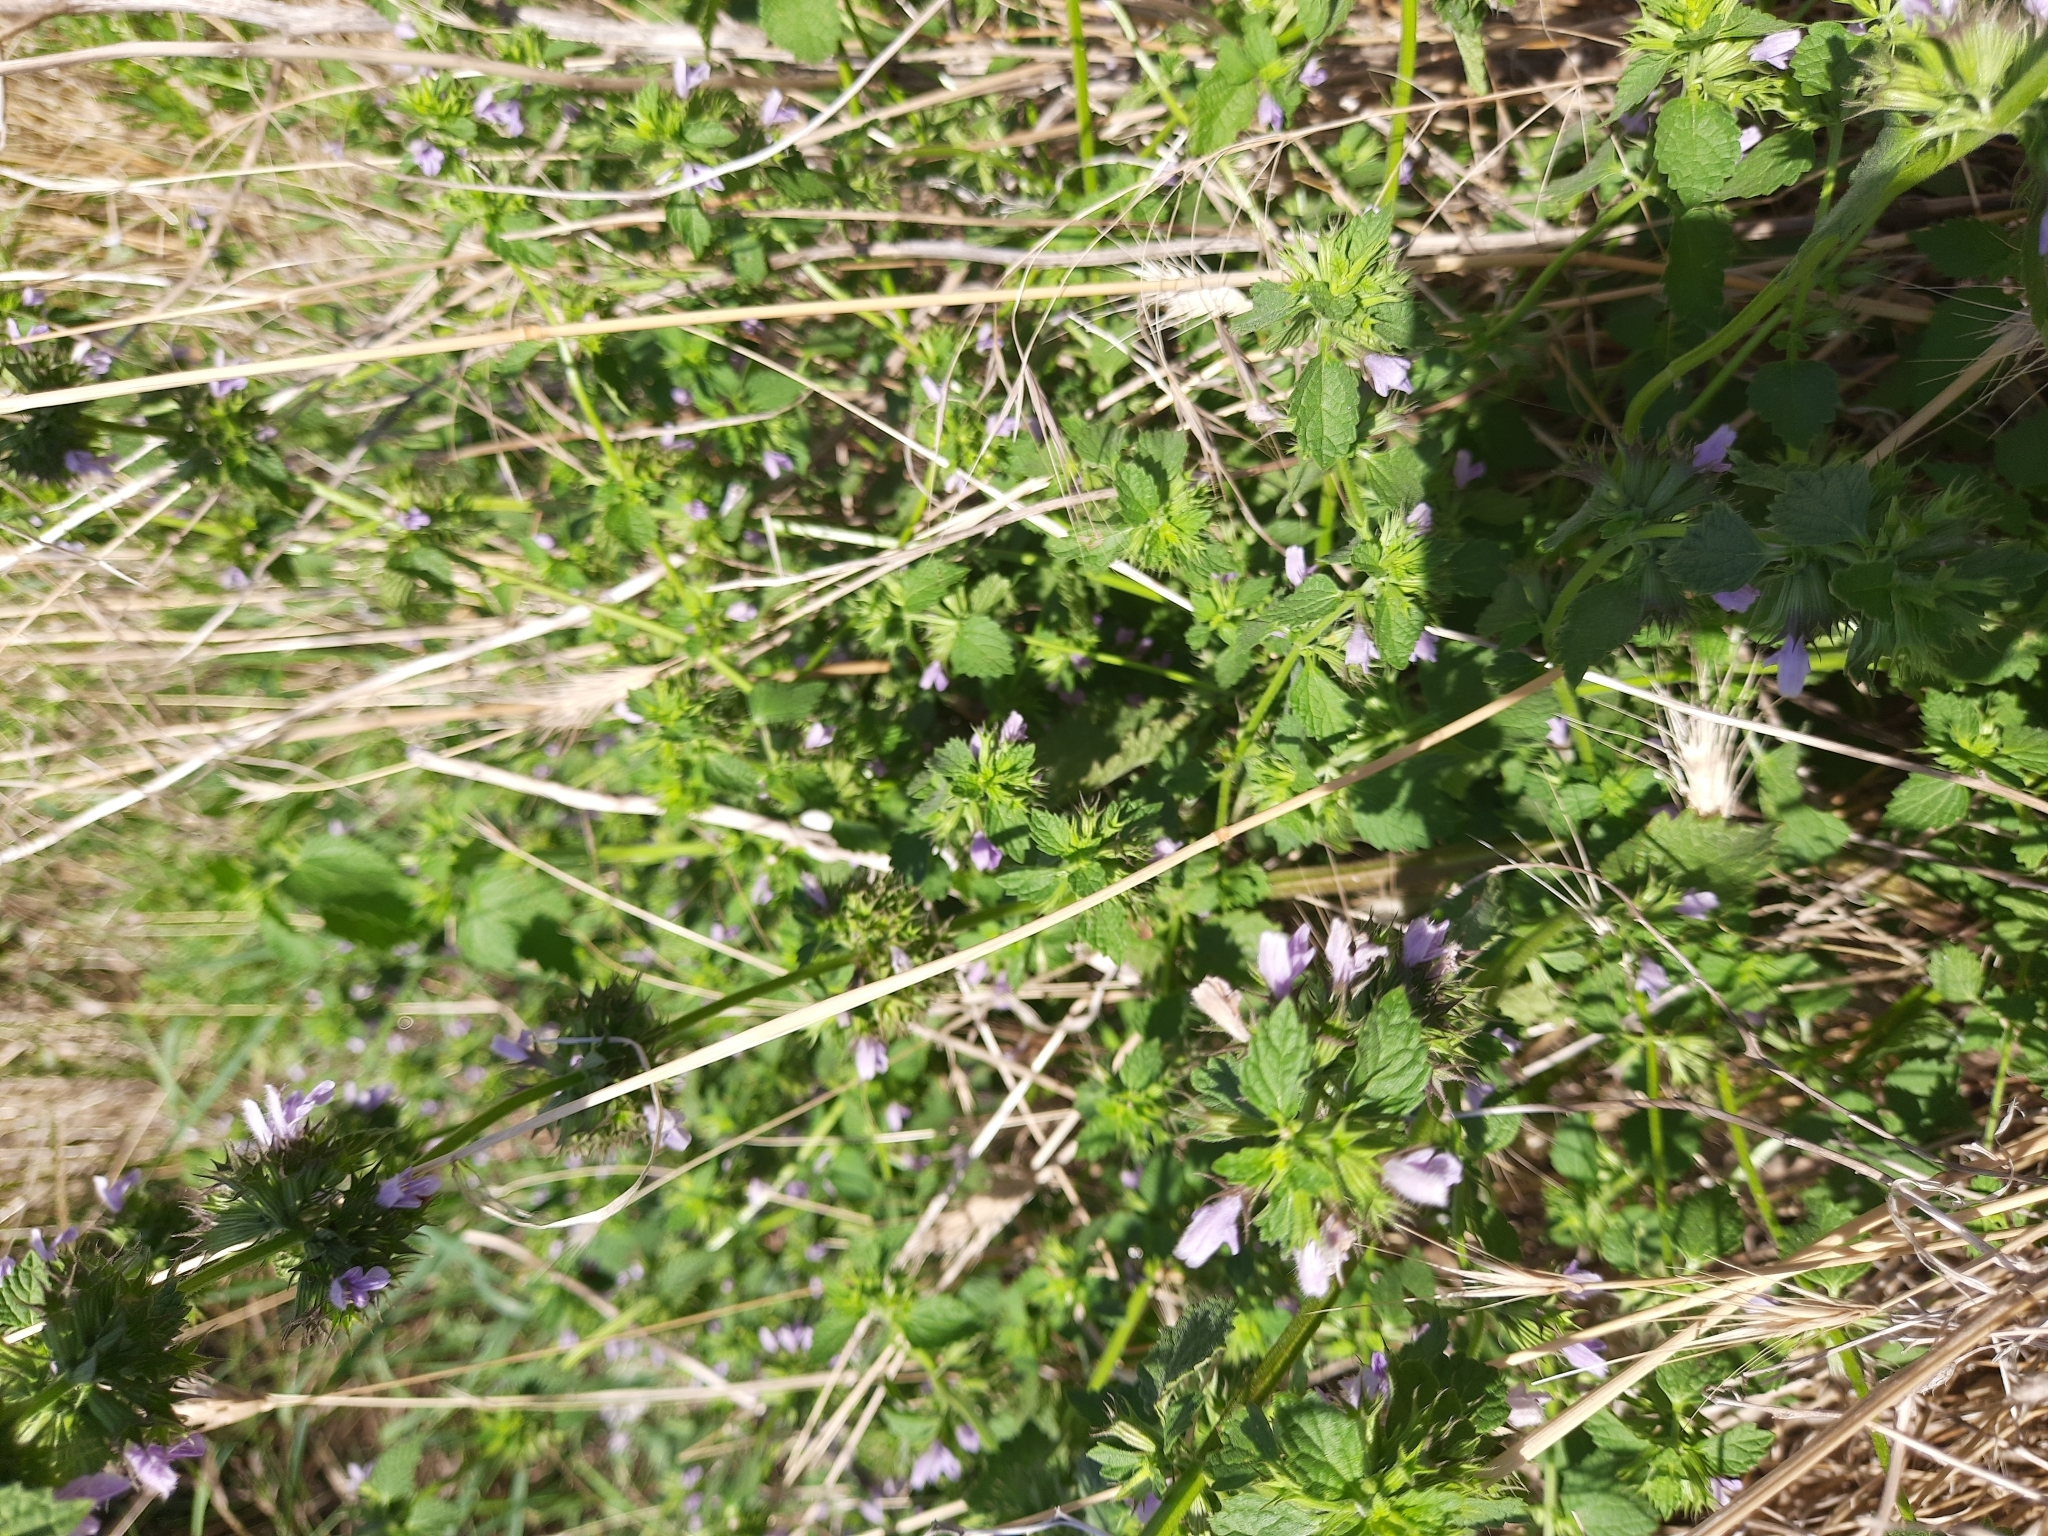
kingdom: Plantae
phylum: Tracheophyta
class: Magnoliopsida
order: Lamiales
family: Lamiaceae
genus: Ballota
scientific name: Ballota nigra
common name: Black horehound
